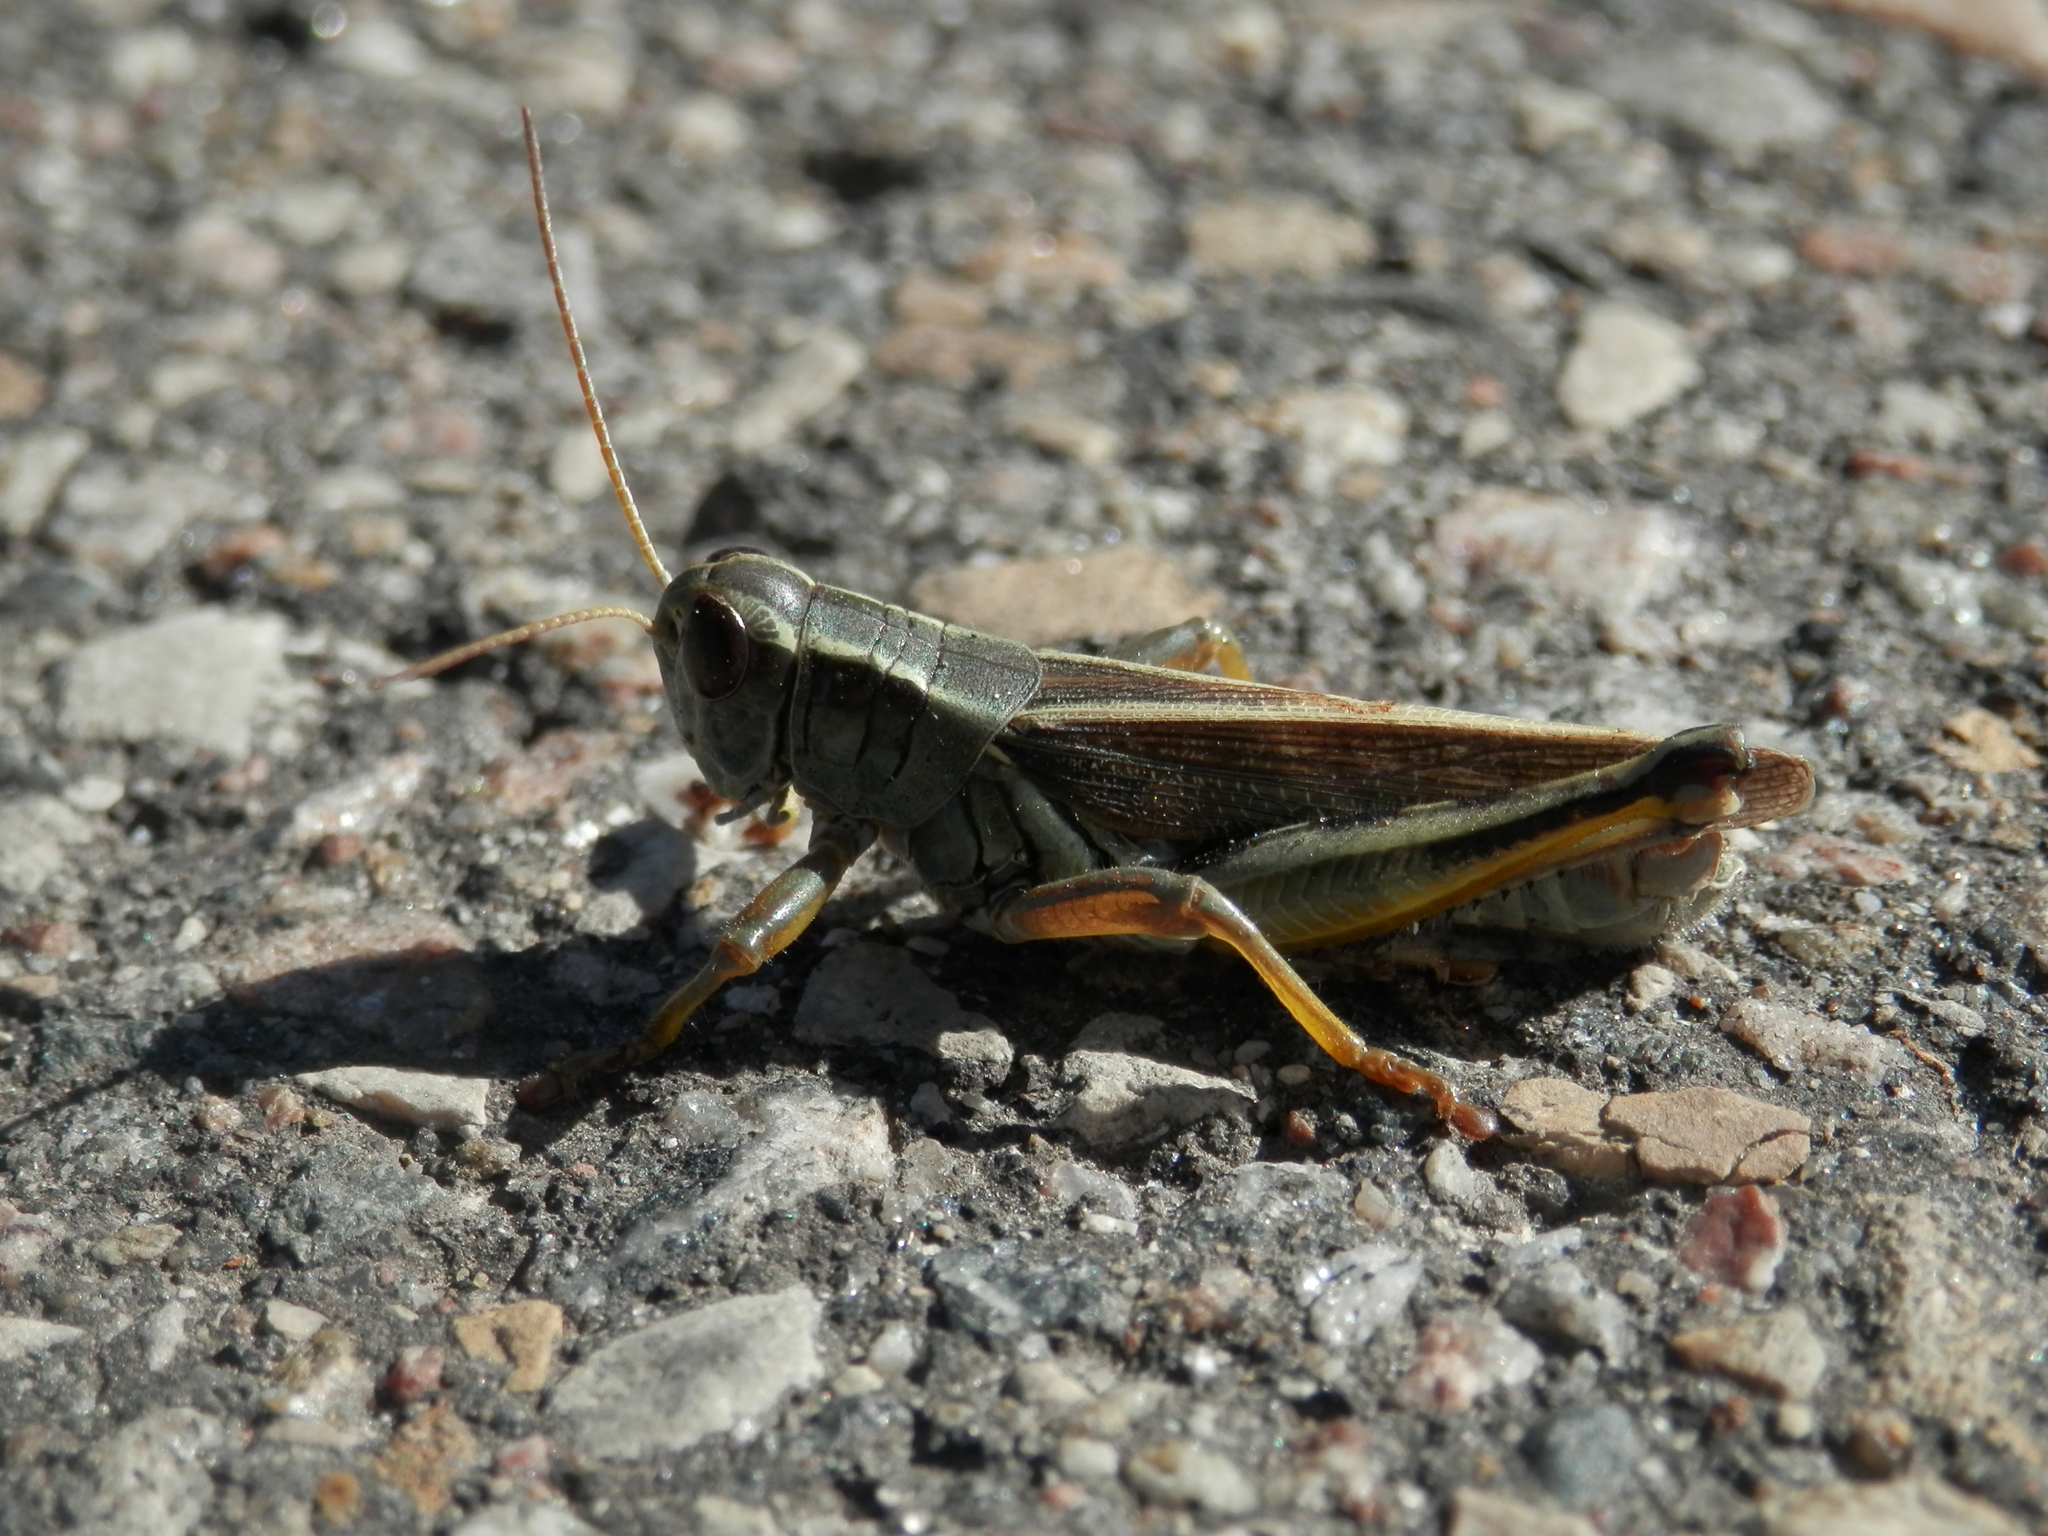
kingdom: Animalia
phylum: Arthropoda
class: Insecta
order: Orthoptera
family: Acrididae
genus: Melanoplus
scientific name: Melanoplus bivittatus
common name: Two-striped grasshopper
